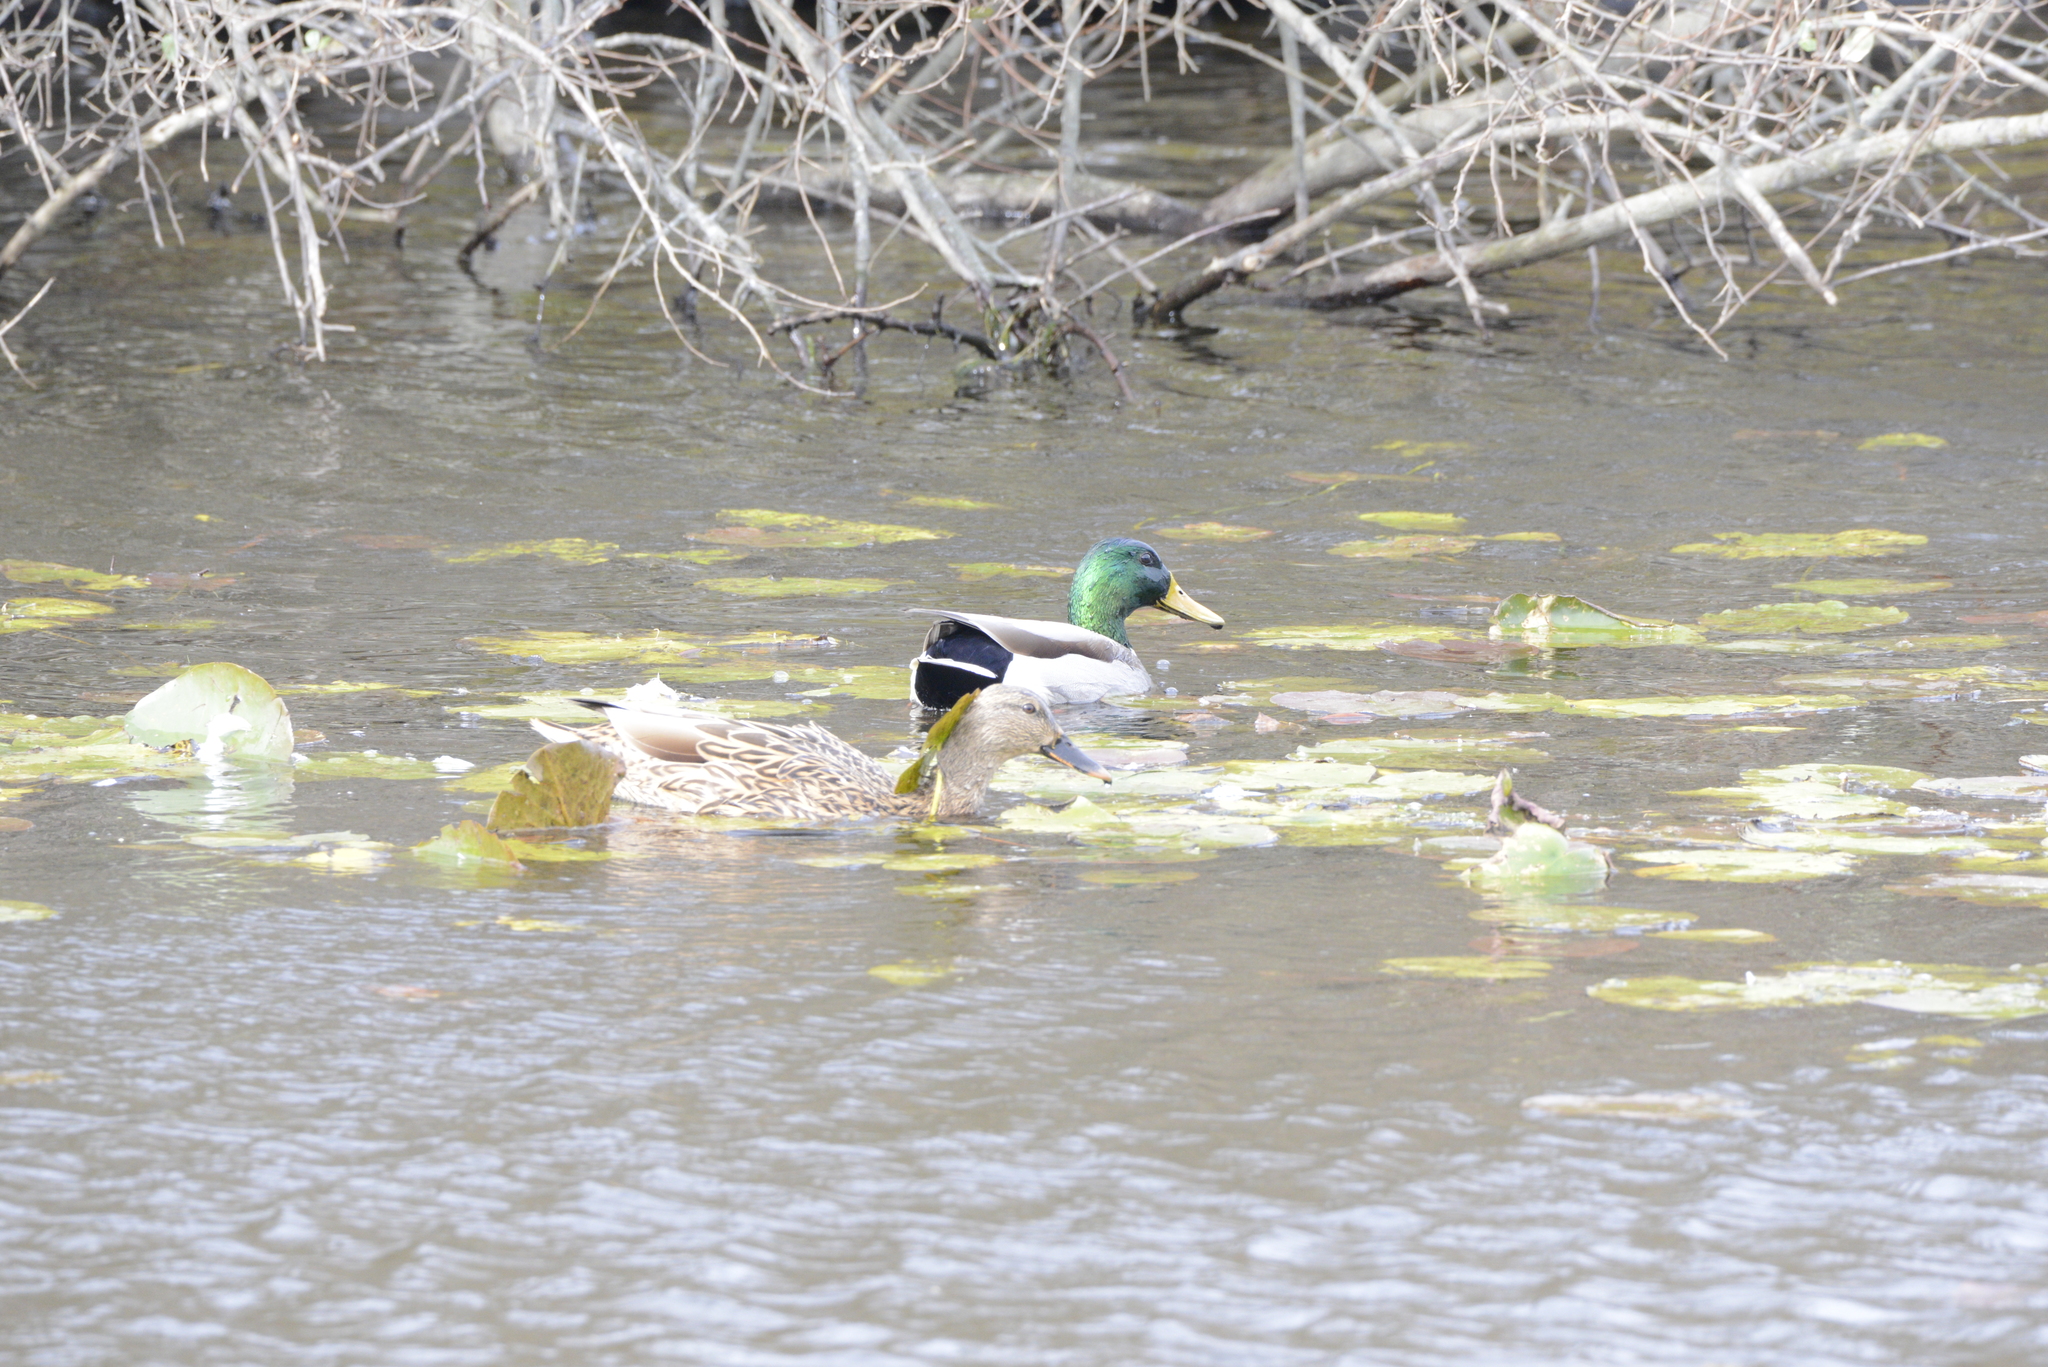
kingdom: Animalia
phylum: Chordata
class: Aves
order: Anseriformes
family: Anatidae
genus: Anas
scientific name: Anas platyrhynchos
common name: Mallard
